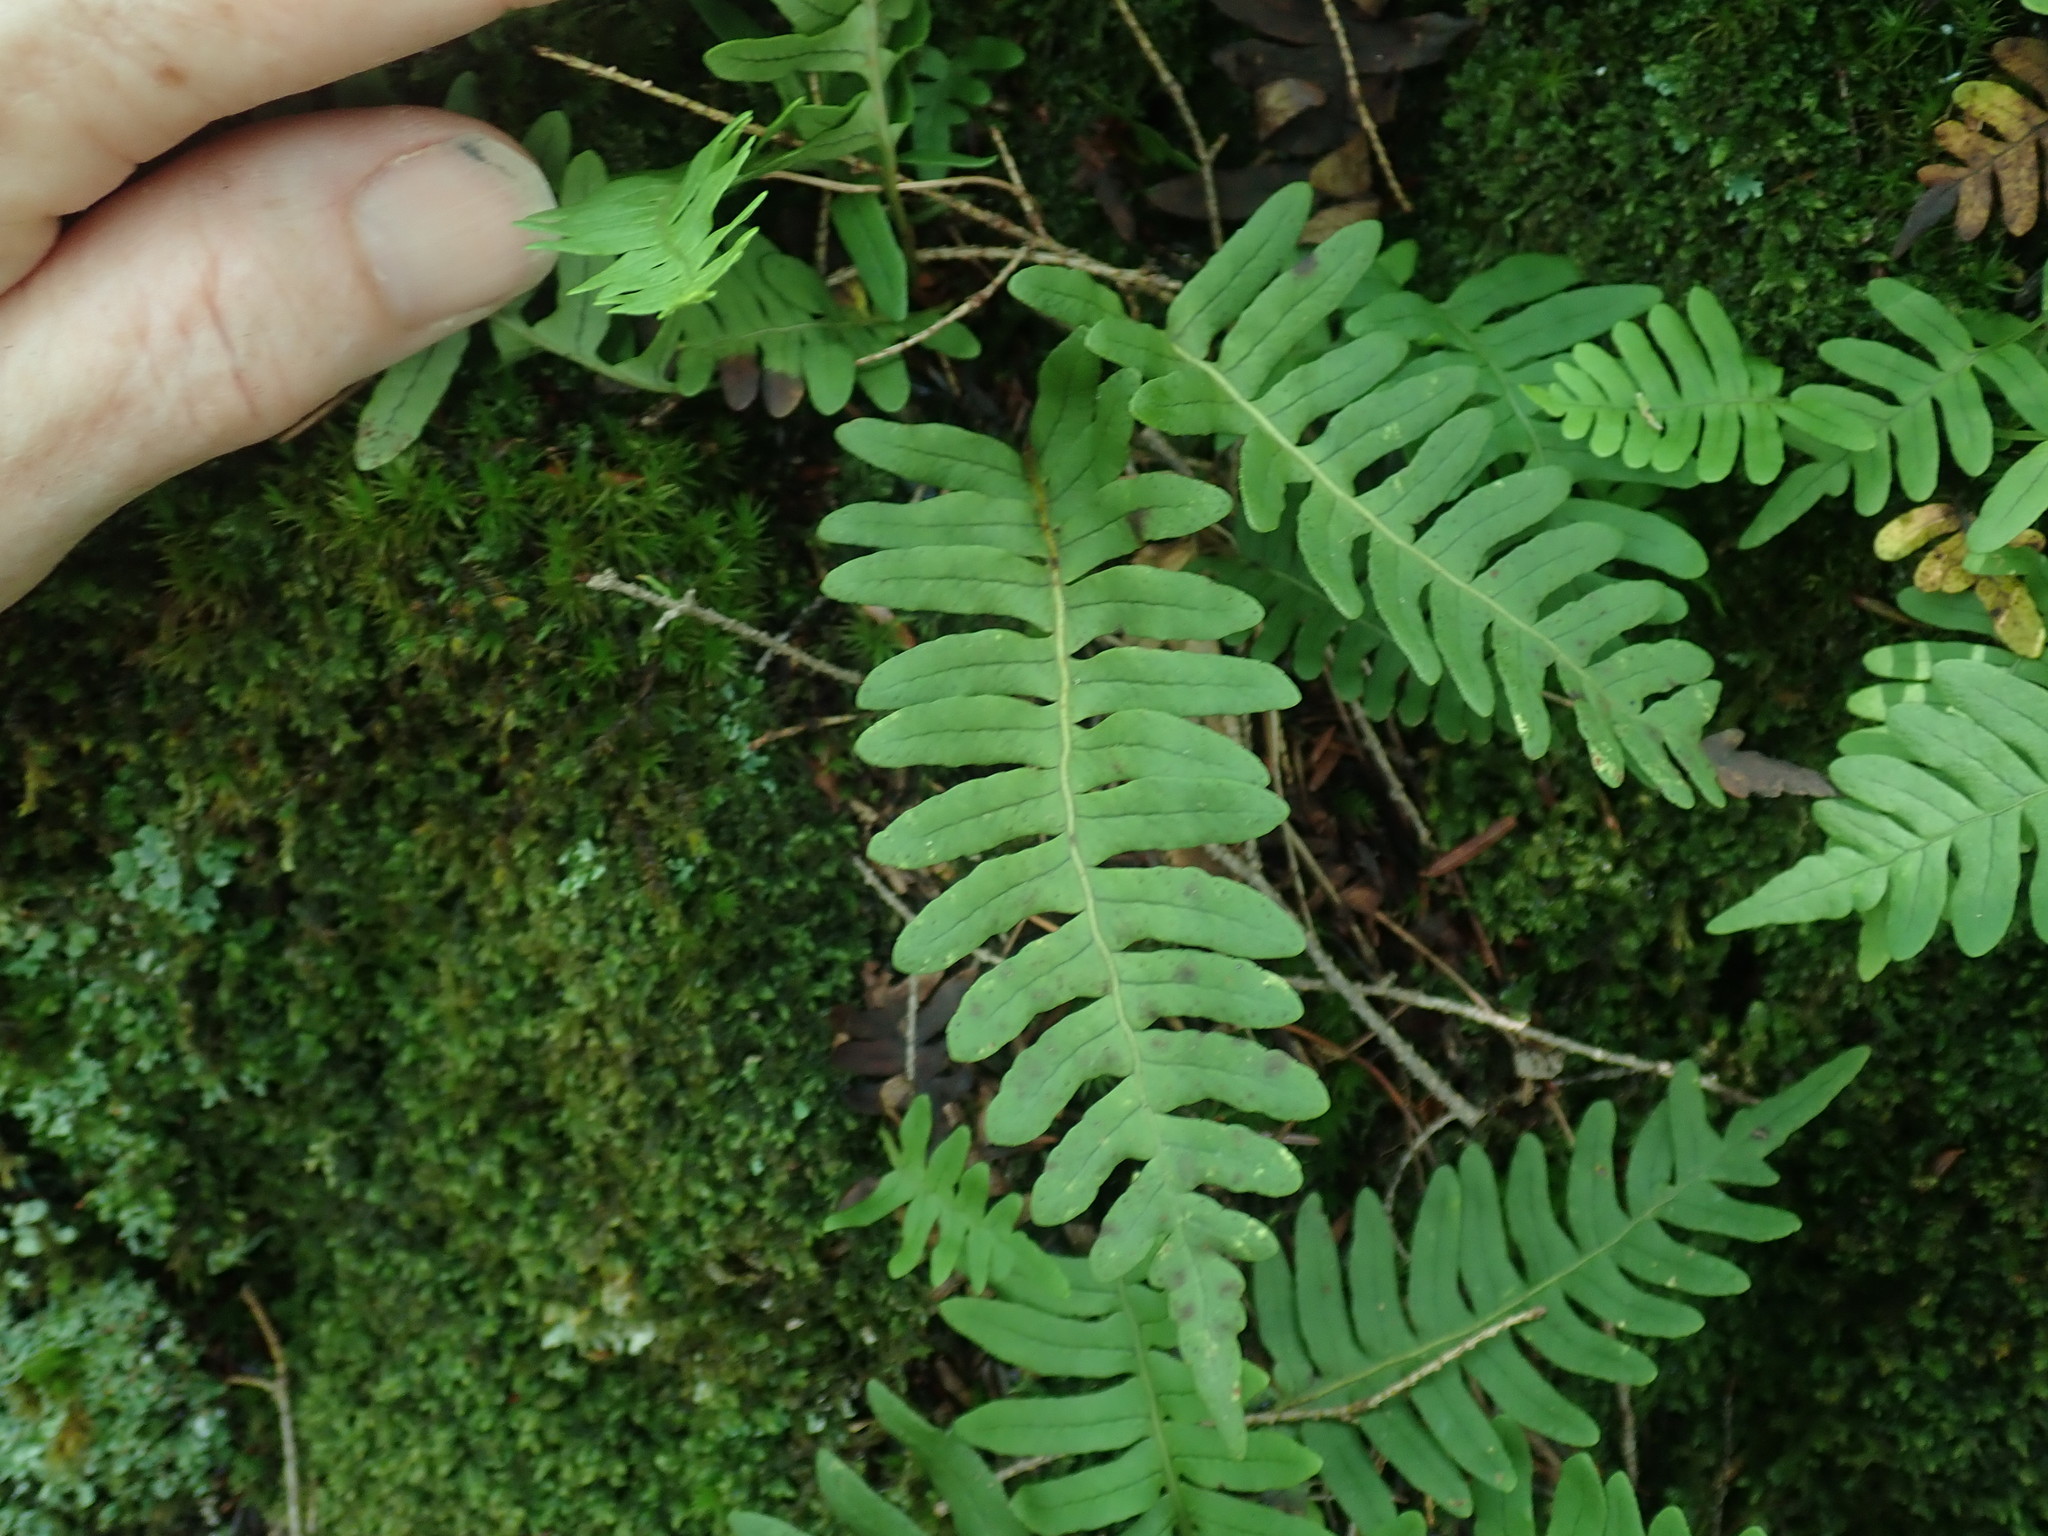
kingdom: Plantae
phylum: Tracheophyta
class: Polypodiopsida
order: Polypodiales
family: Polypodiaceae
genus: Polypodium
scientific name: Polypodium
